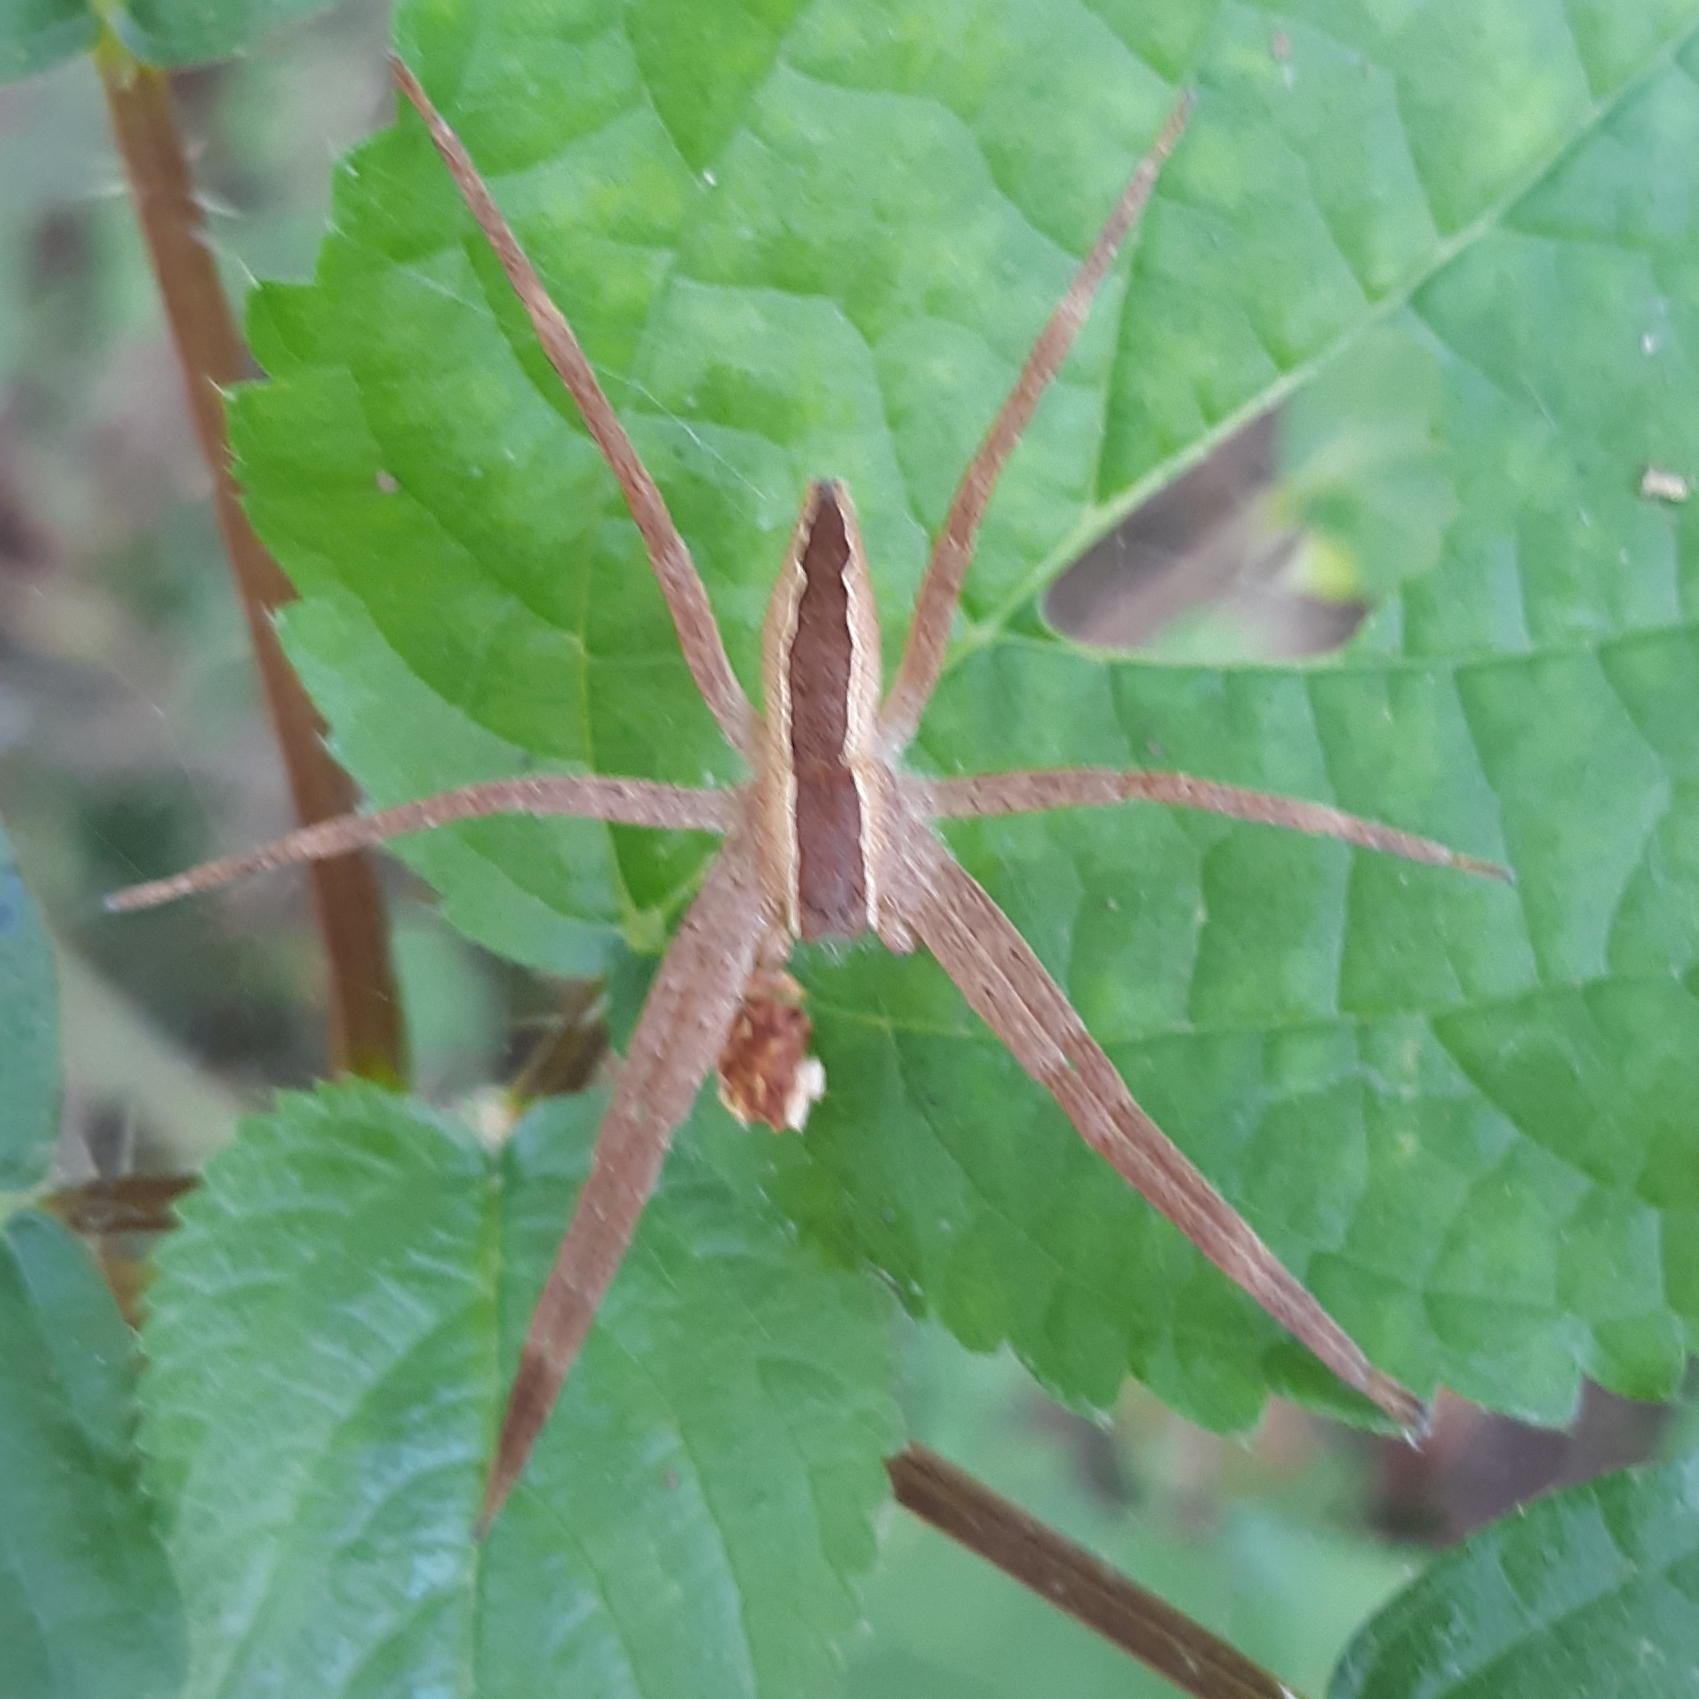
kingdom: Animalia
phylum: Arthropoda
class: Arachnida
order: Araneae
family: Pisauridae
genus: Pisaurina
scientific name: Pisaurina mira
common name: American nursery web spider
